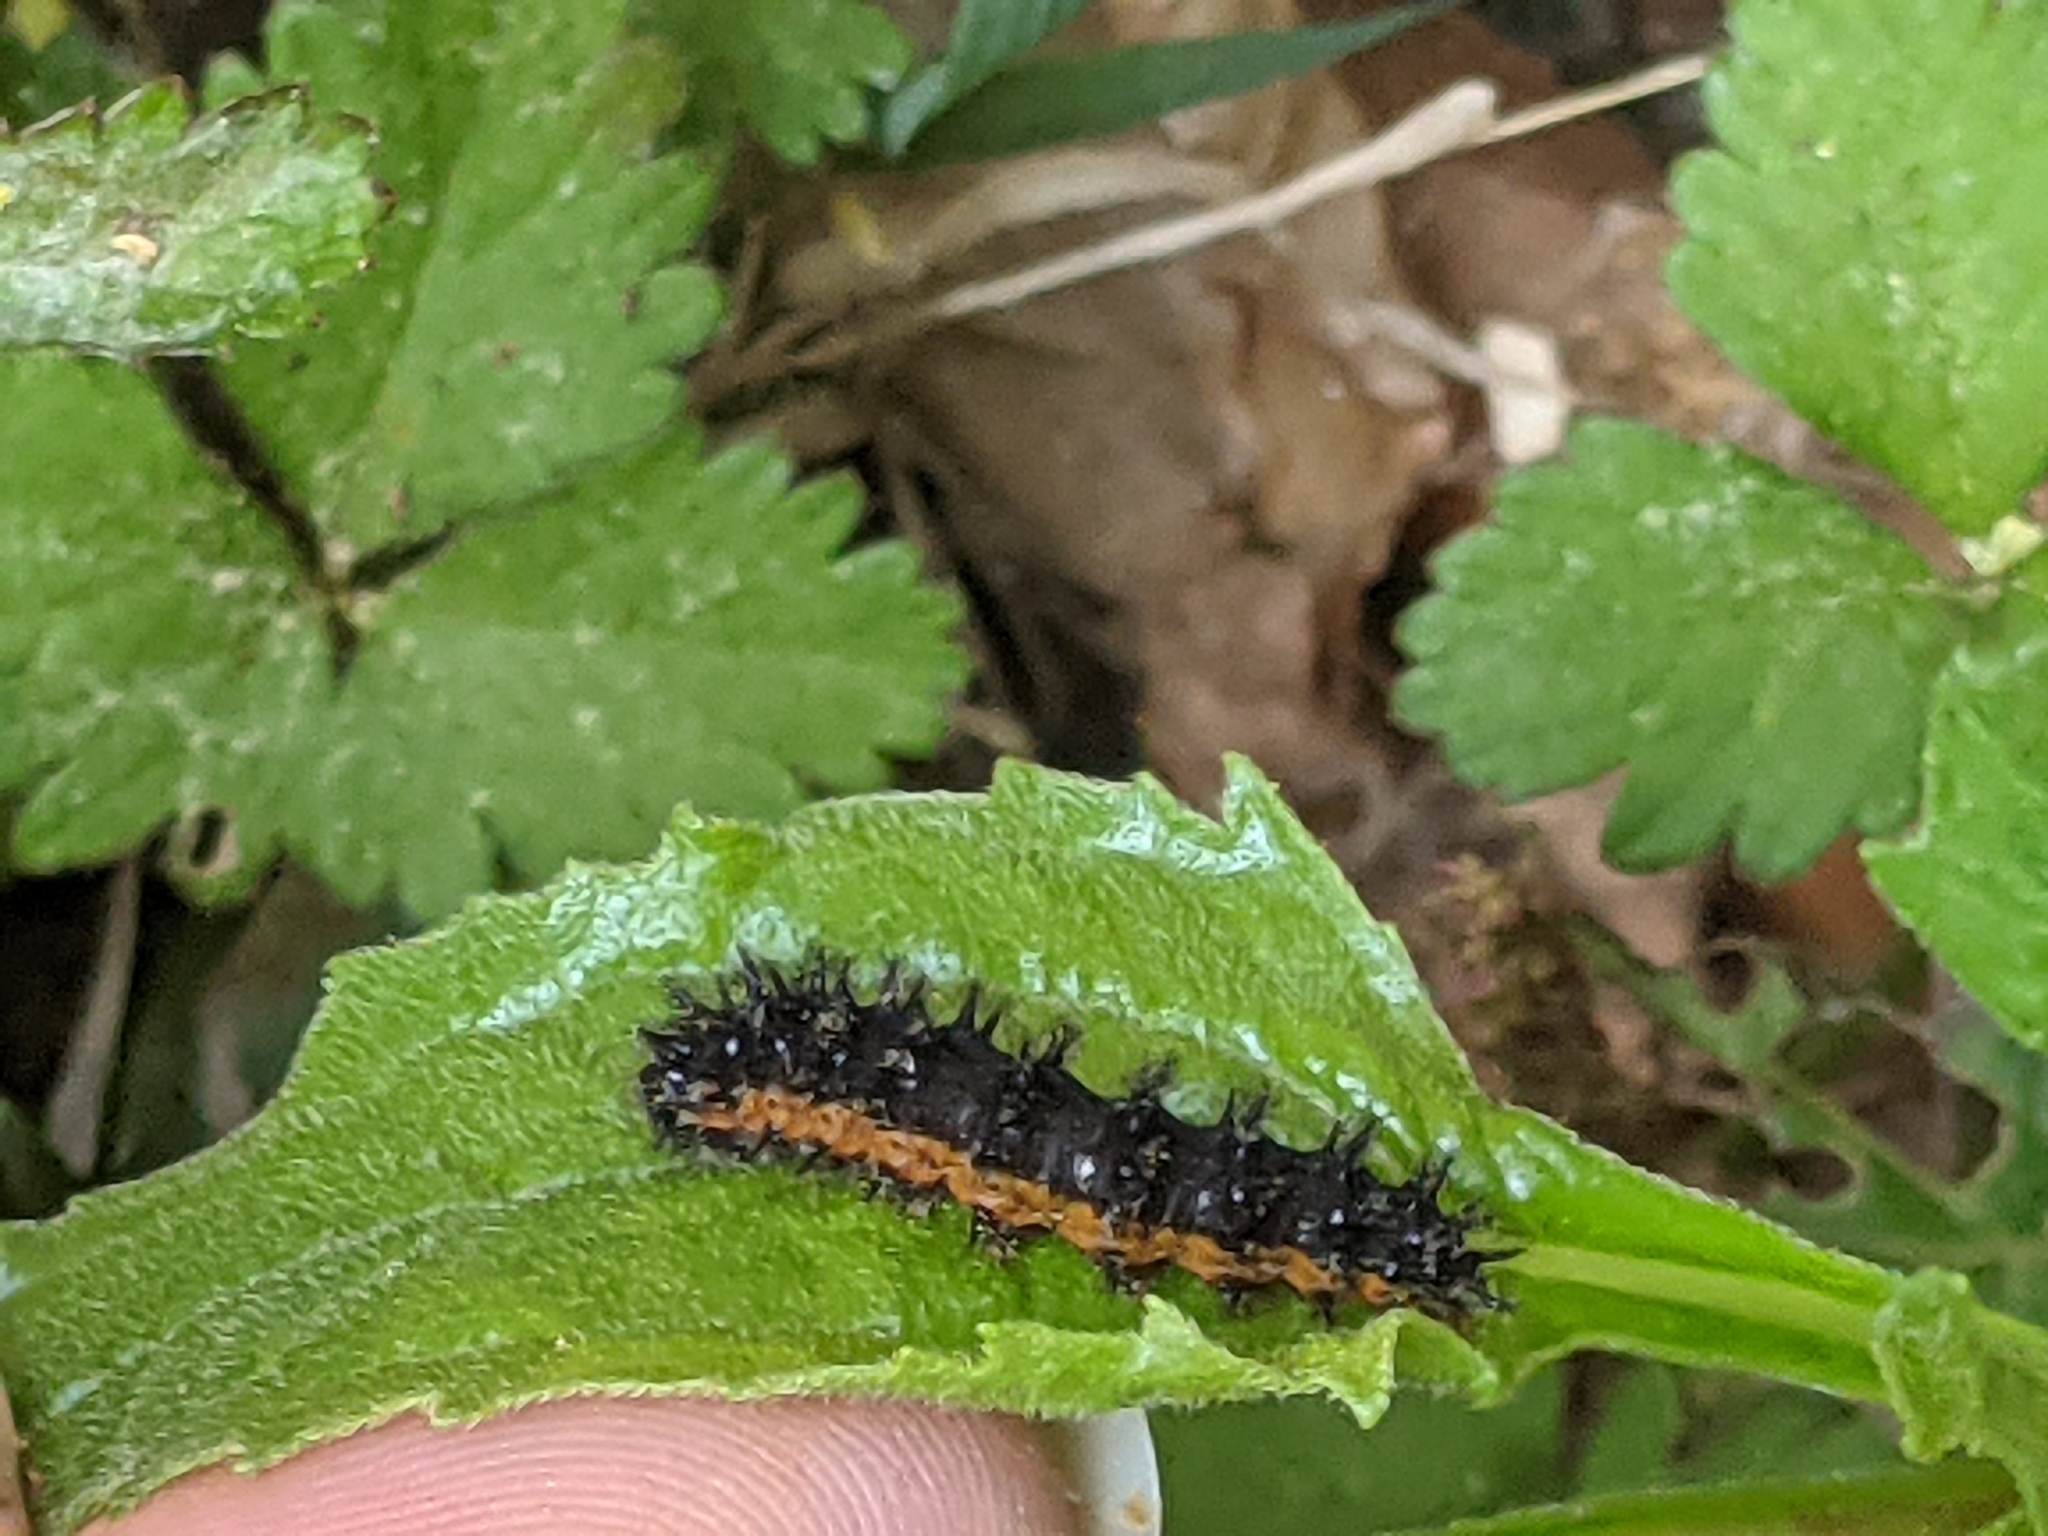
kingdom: Animalia
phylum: Arthropoda
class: Insecta
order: Lepidoptera
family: Nymphalidae
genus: Chlosyne
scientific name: Chlosyne nycteis
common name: Silvery checkerspot
